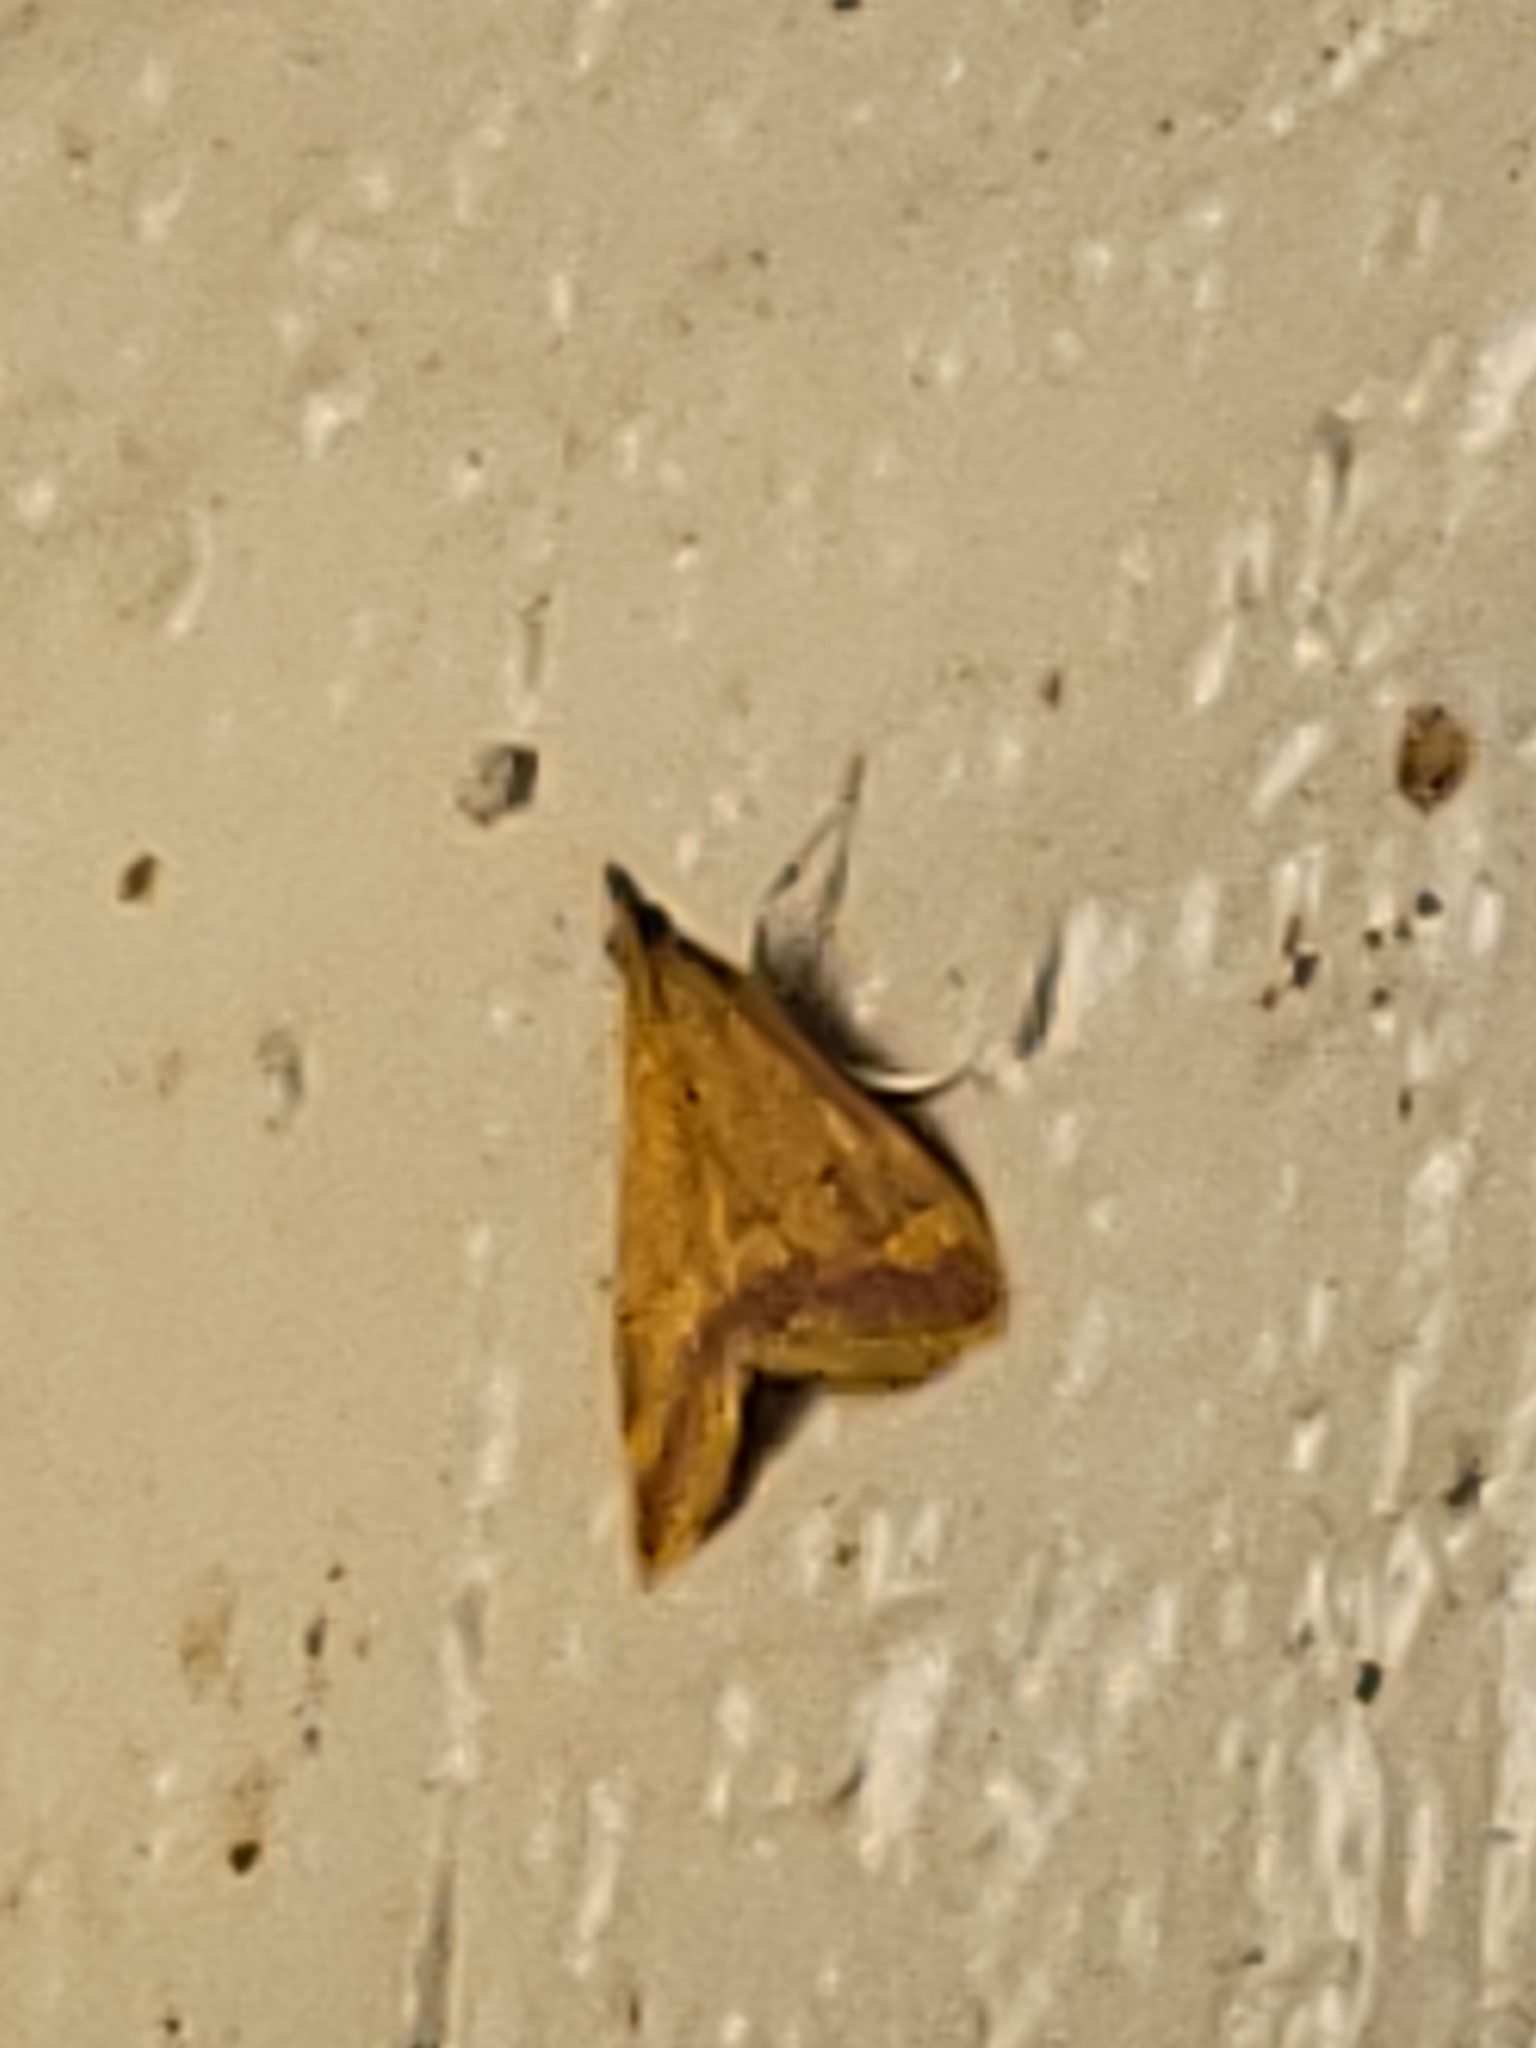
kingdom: Animalia
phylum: Arthropoda
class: Insecta
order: Lepidoptera
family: Crambidae
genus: Pyrausta
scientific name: Pyrausta pseudonythesalis
